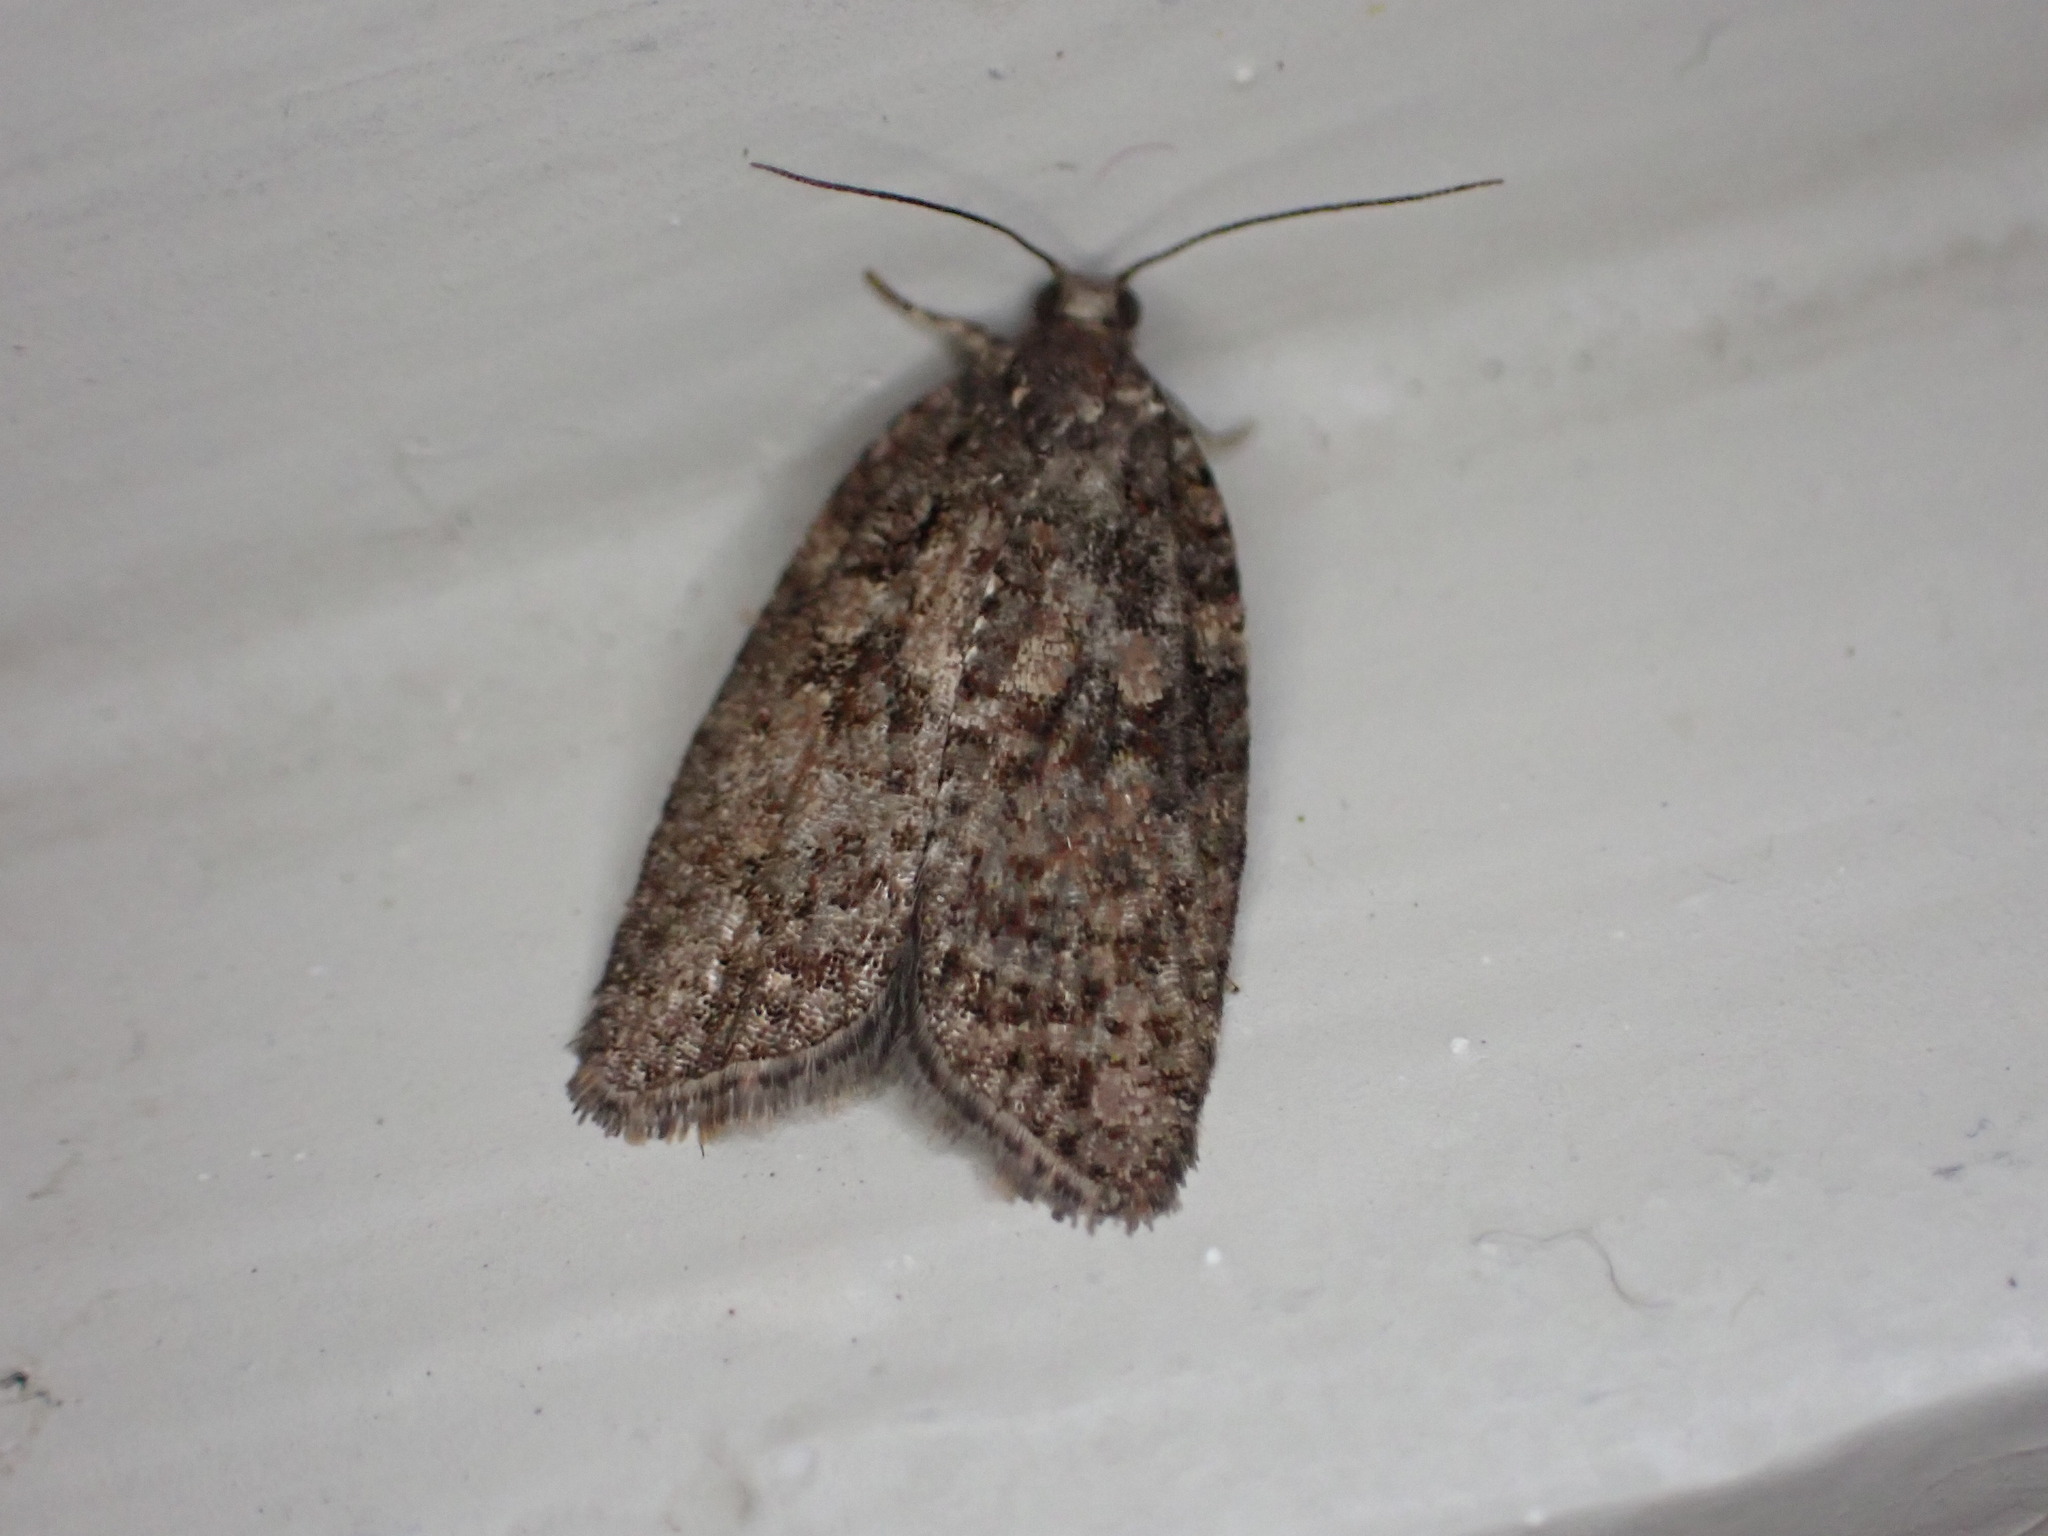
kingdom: Animalia
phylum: Arthropoda
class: Insecta
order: Lepidoptera
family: Tortricidae
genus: Capua
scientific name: Capua intractana
